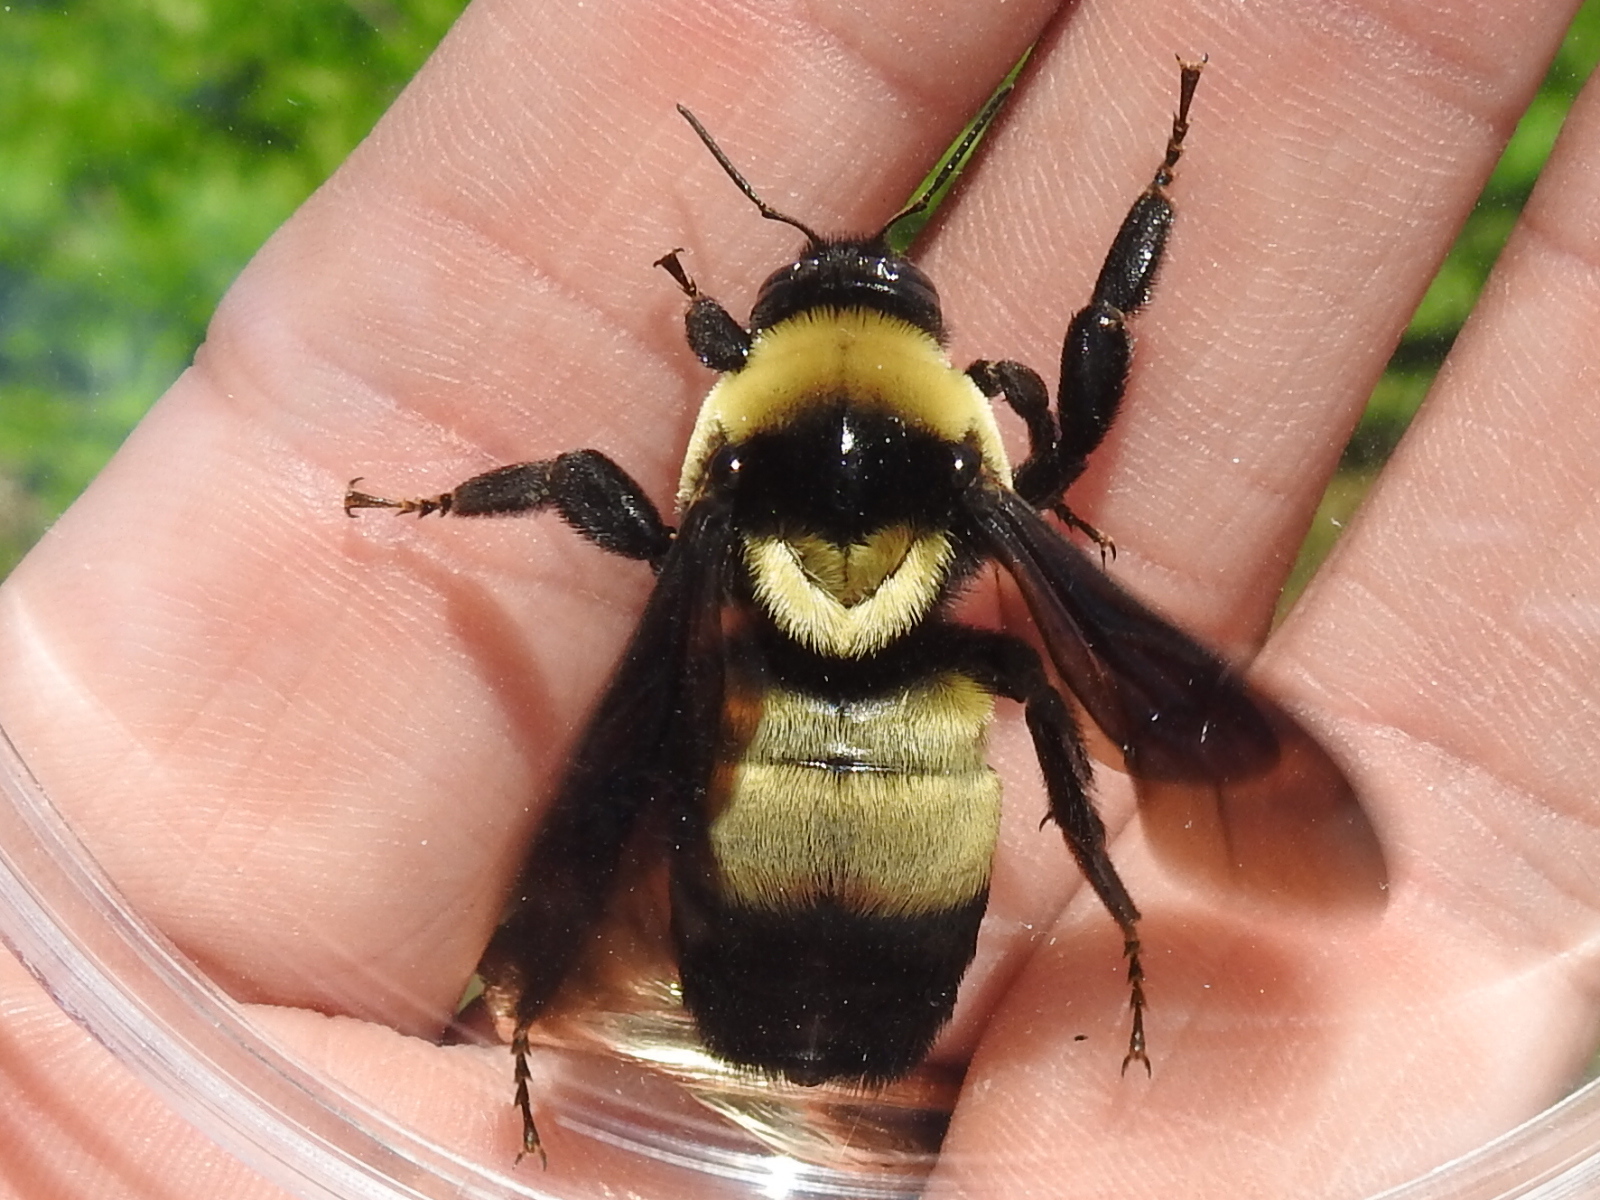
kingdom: Animalia
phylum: Arthropoda
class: Insecta
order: Hymenoptera
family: Apidae
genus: Bombus
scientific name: Bombus fraternus
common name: Southern plains bumble bee
